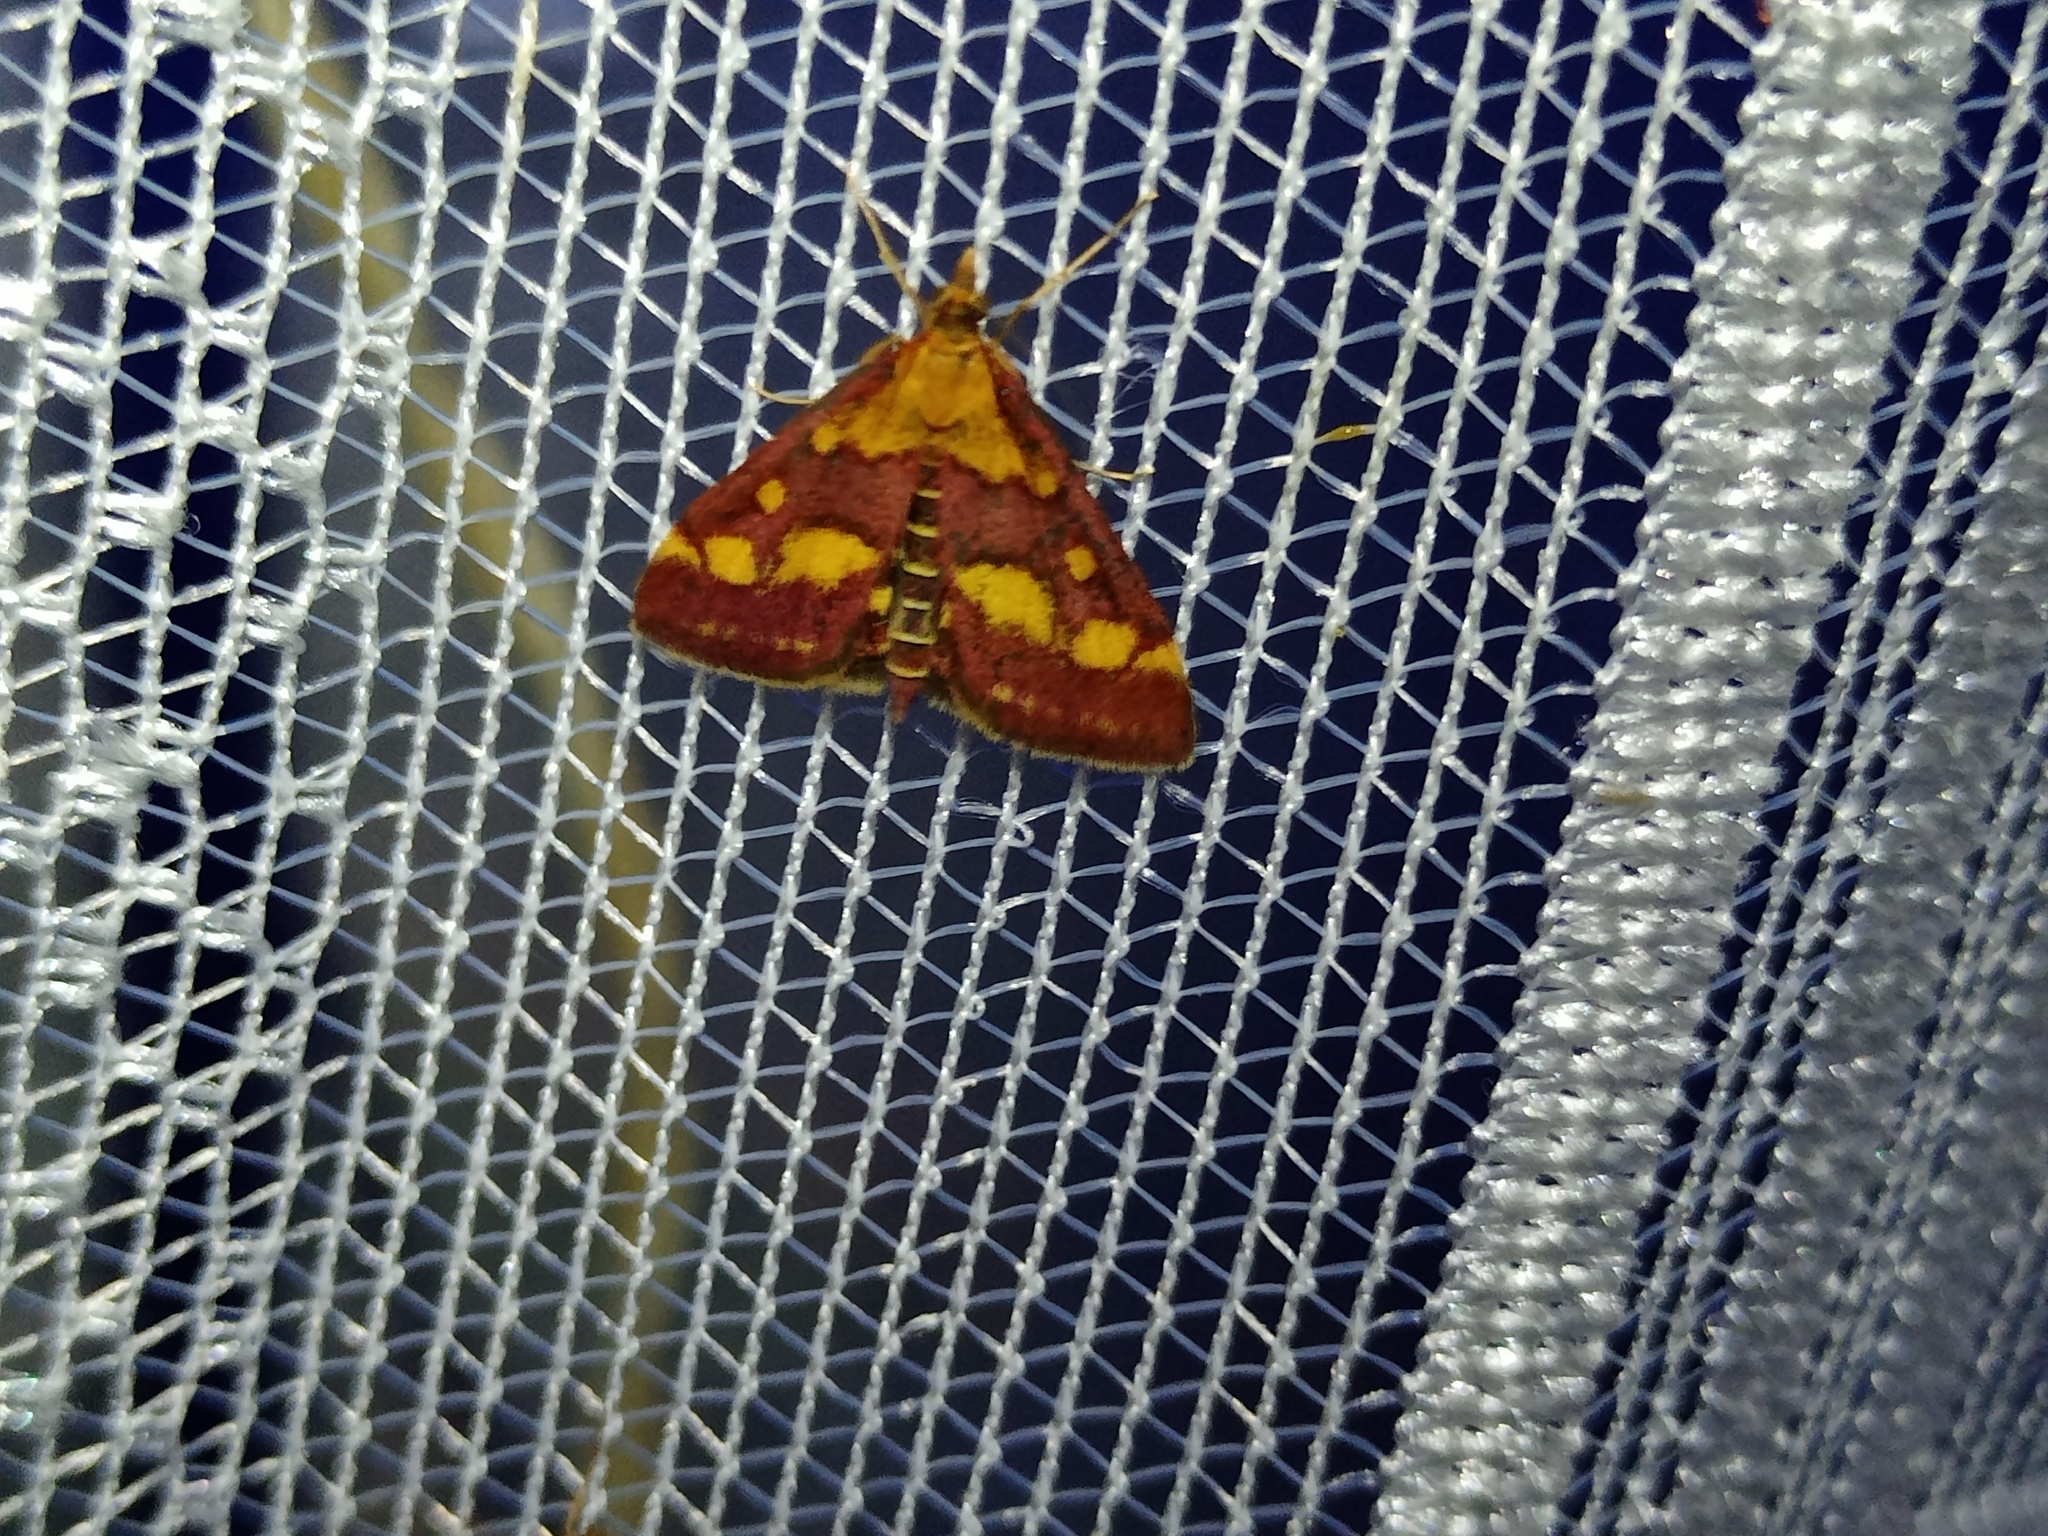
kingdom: Animalia
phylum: Arthropoda
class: Insecta
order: Lepidoptera
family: Crambidae
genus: Pyrausta
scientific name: Pyrausta purpuralis
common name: Common purple & gold
